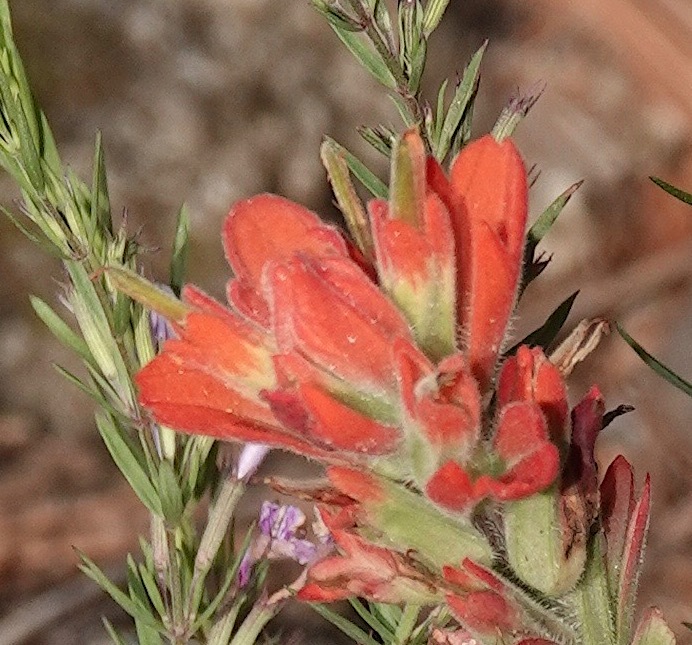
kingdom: Plantae
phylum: Tracheophyta
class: Magnoliopsida
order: Lamiales
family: Orobanchaceae
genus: Castilleja
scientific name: Castilleja nelsonii
